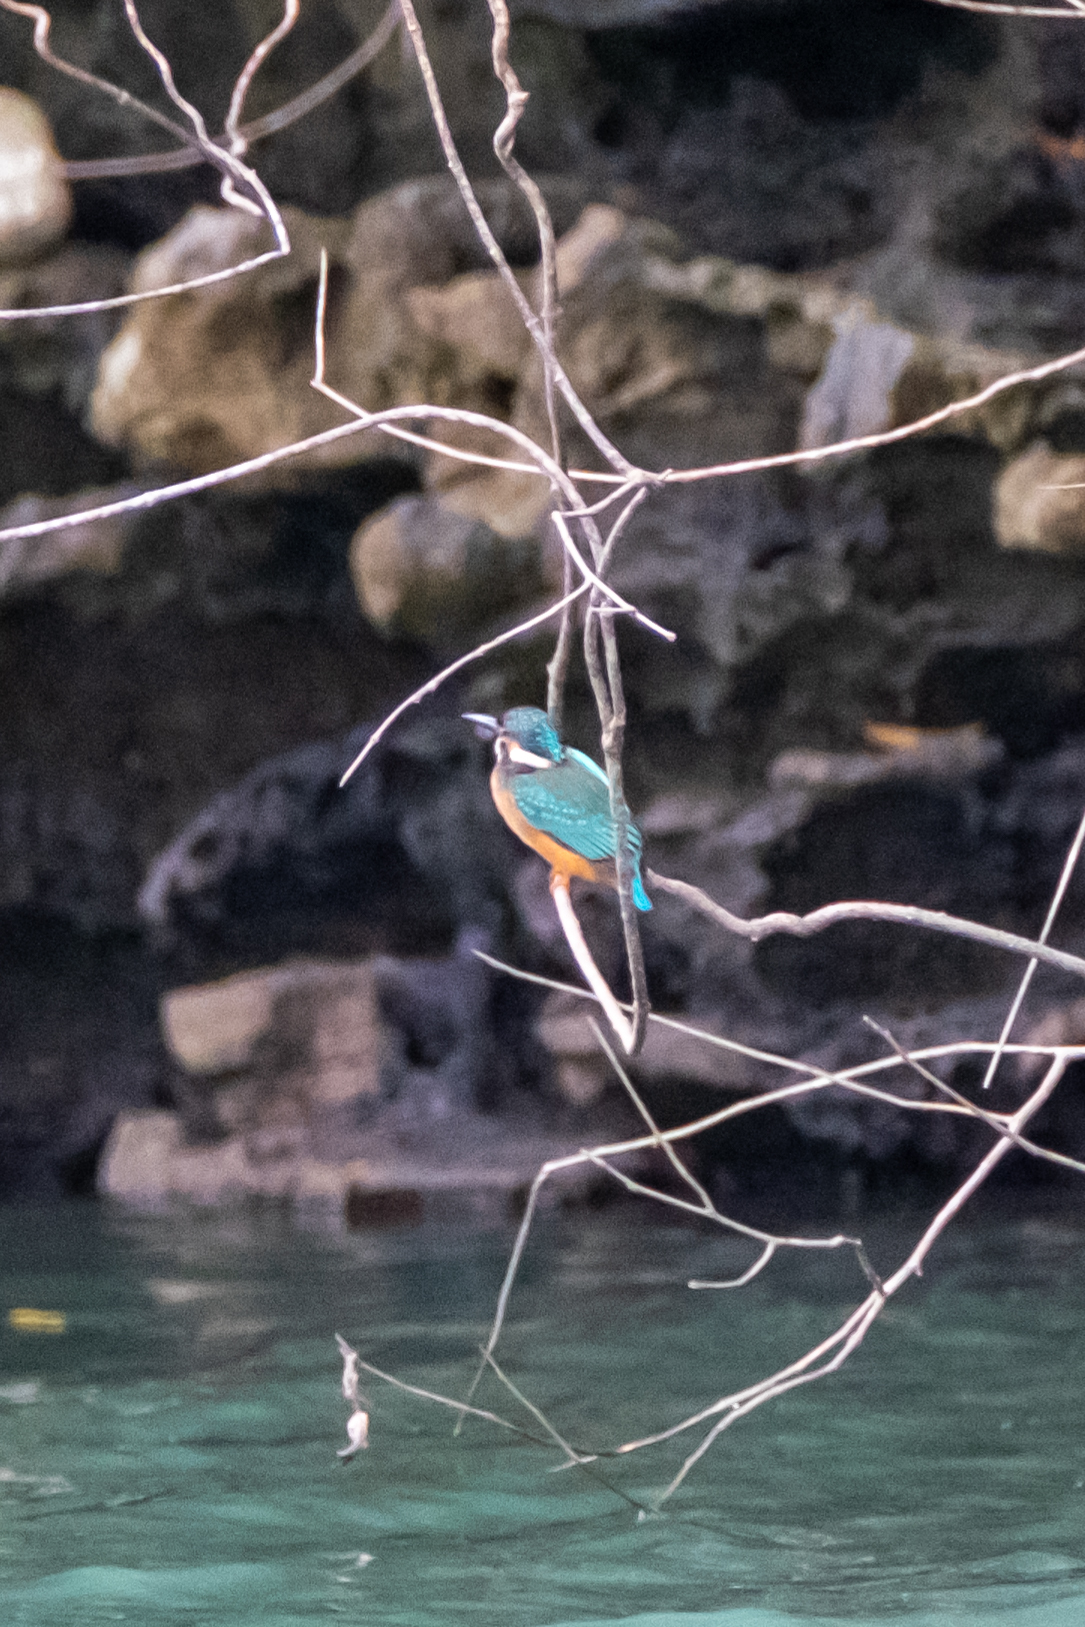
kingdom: Animalia
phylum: Chordata
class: Aves
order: Coraciiformes
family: Alcedinidae
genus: Alcedo
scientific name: Alcedo atthis
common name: Common kingfisher
